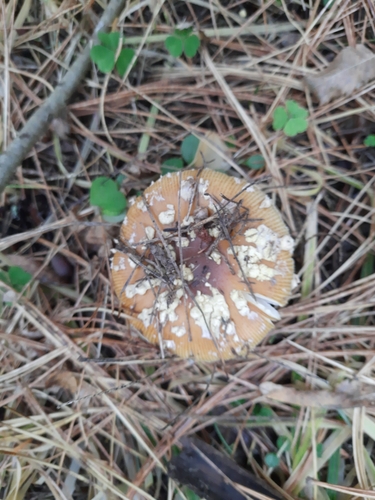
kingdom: Fungi
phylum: Basidiomycota
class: Agaricomycetes
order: Agaricales
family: Amanitaceae
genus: Amanita
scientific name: Amanita
